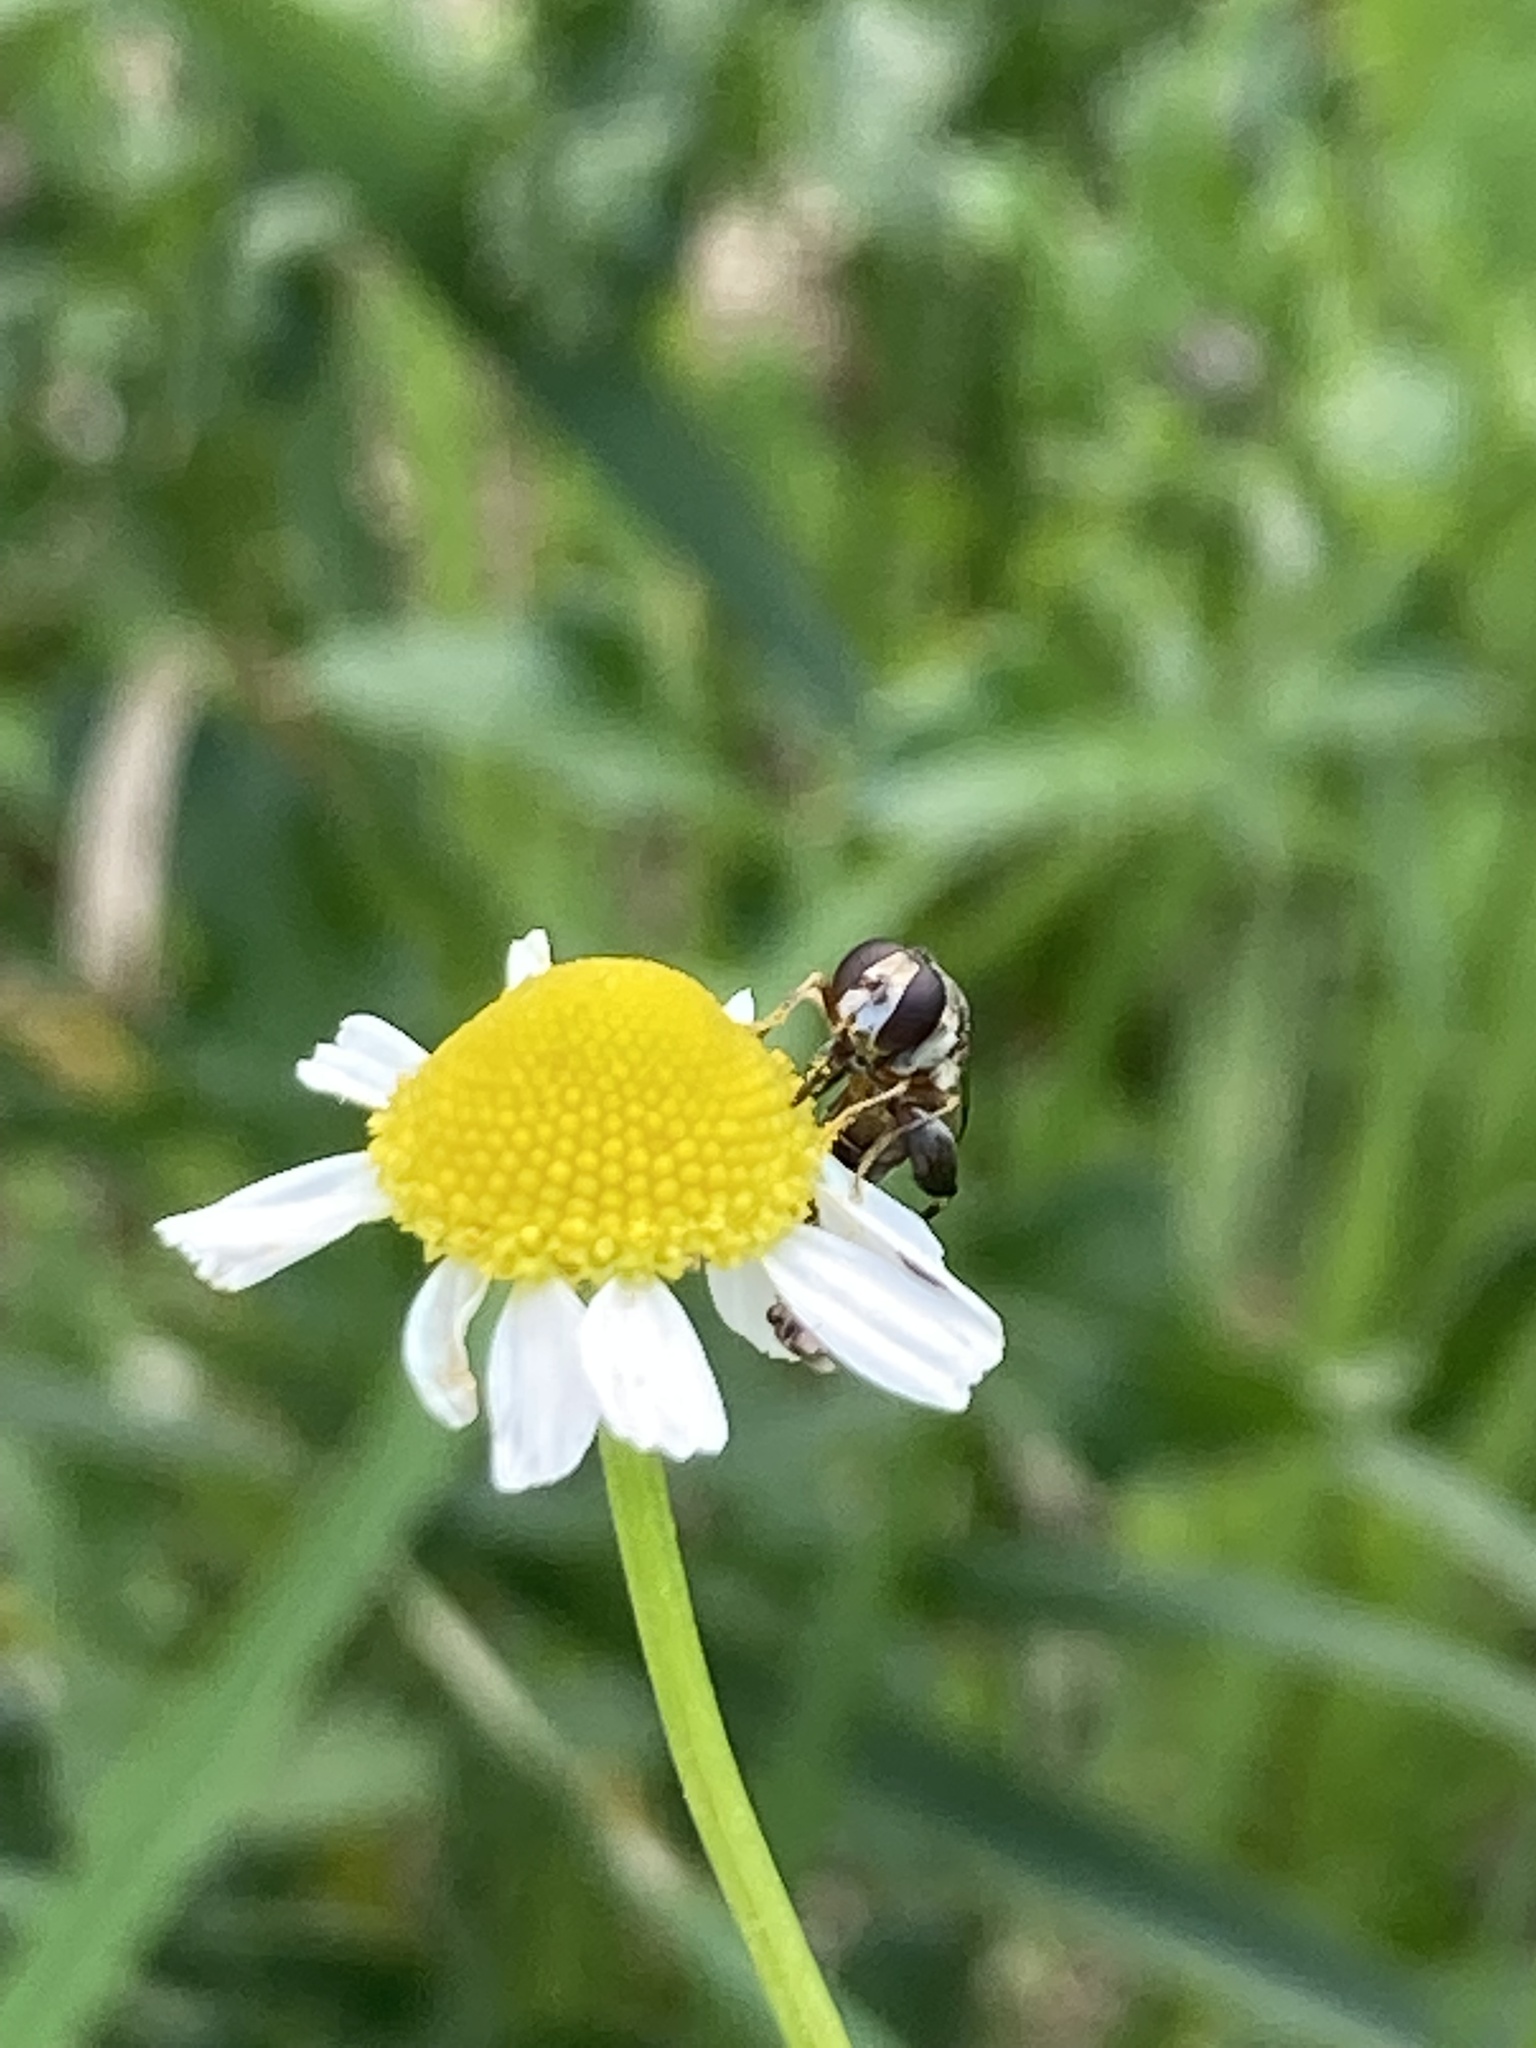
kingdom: Animalia
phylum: Arthropoda
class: Insecta
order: Diptera
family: Syrphidae
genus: Syritta
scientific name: Syritta pipiens
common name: Hover fly
